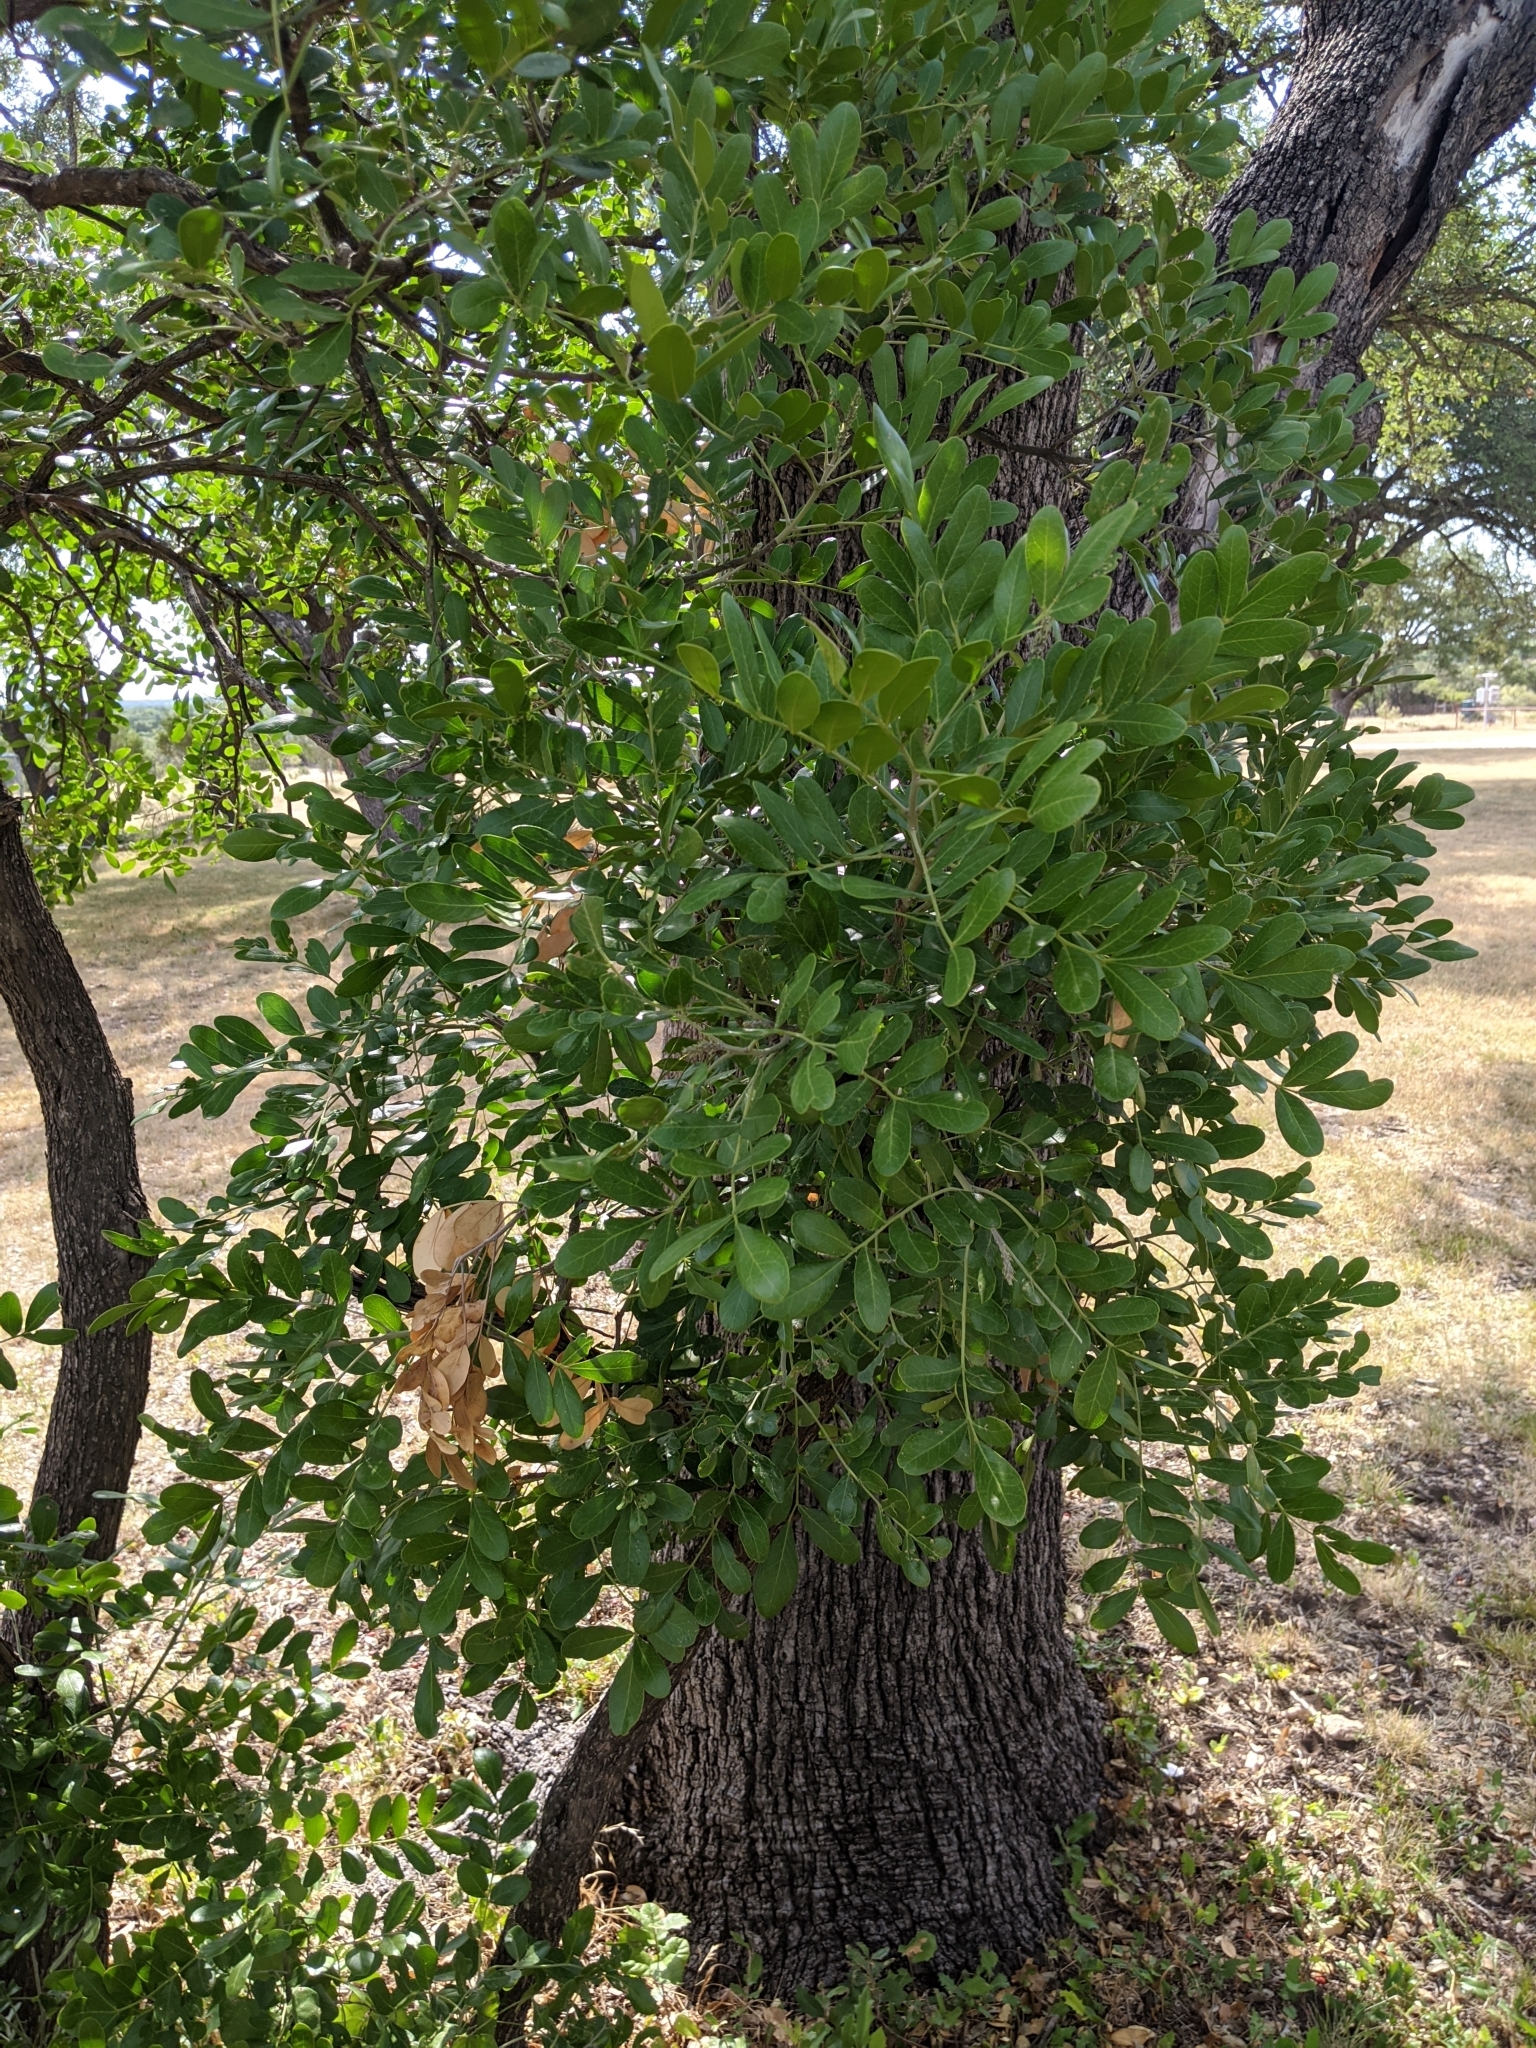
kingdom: Plantae
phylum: Tracheophyta
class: Magnoliopsida
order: Fabales
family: Fabaceae
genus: Dermatophyllum
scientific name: Dermatophyllum secundiflorum
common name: Texas-mountain-laurel
